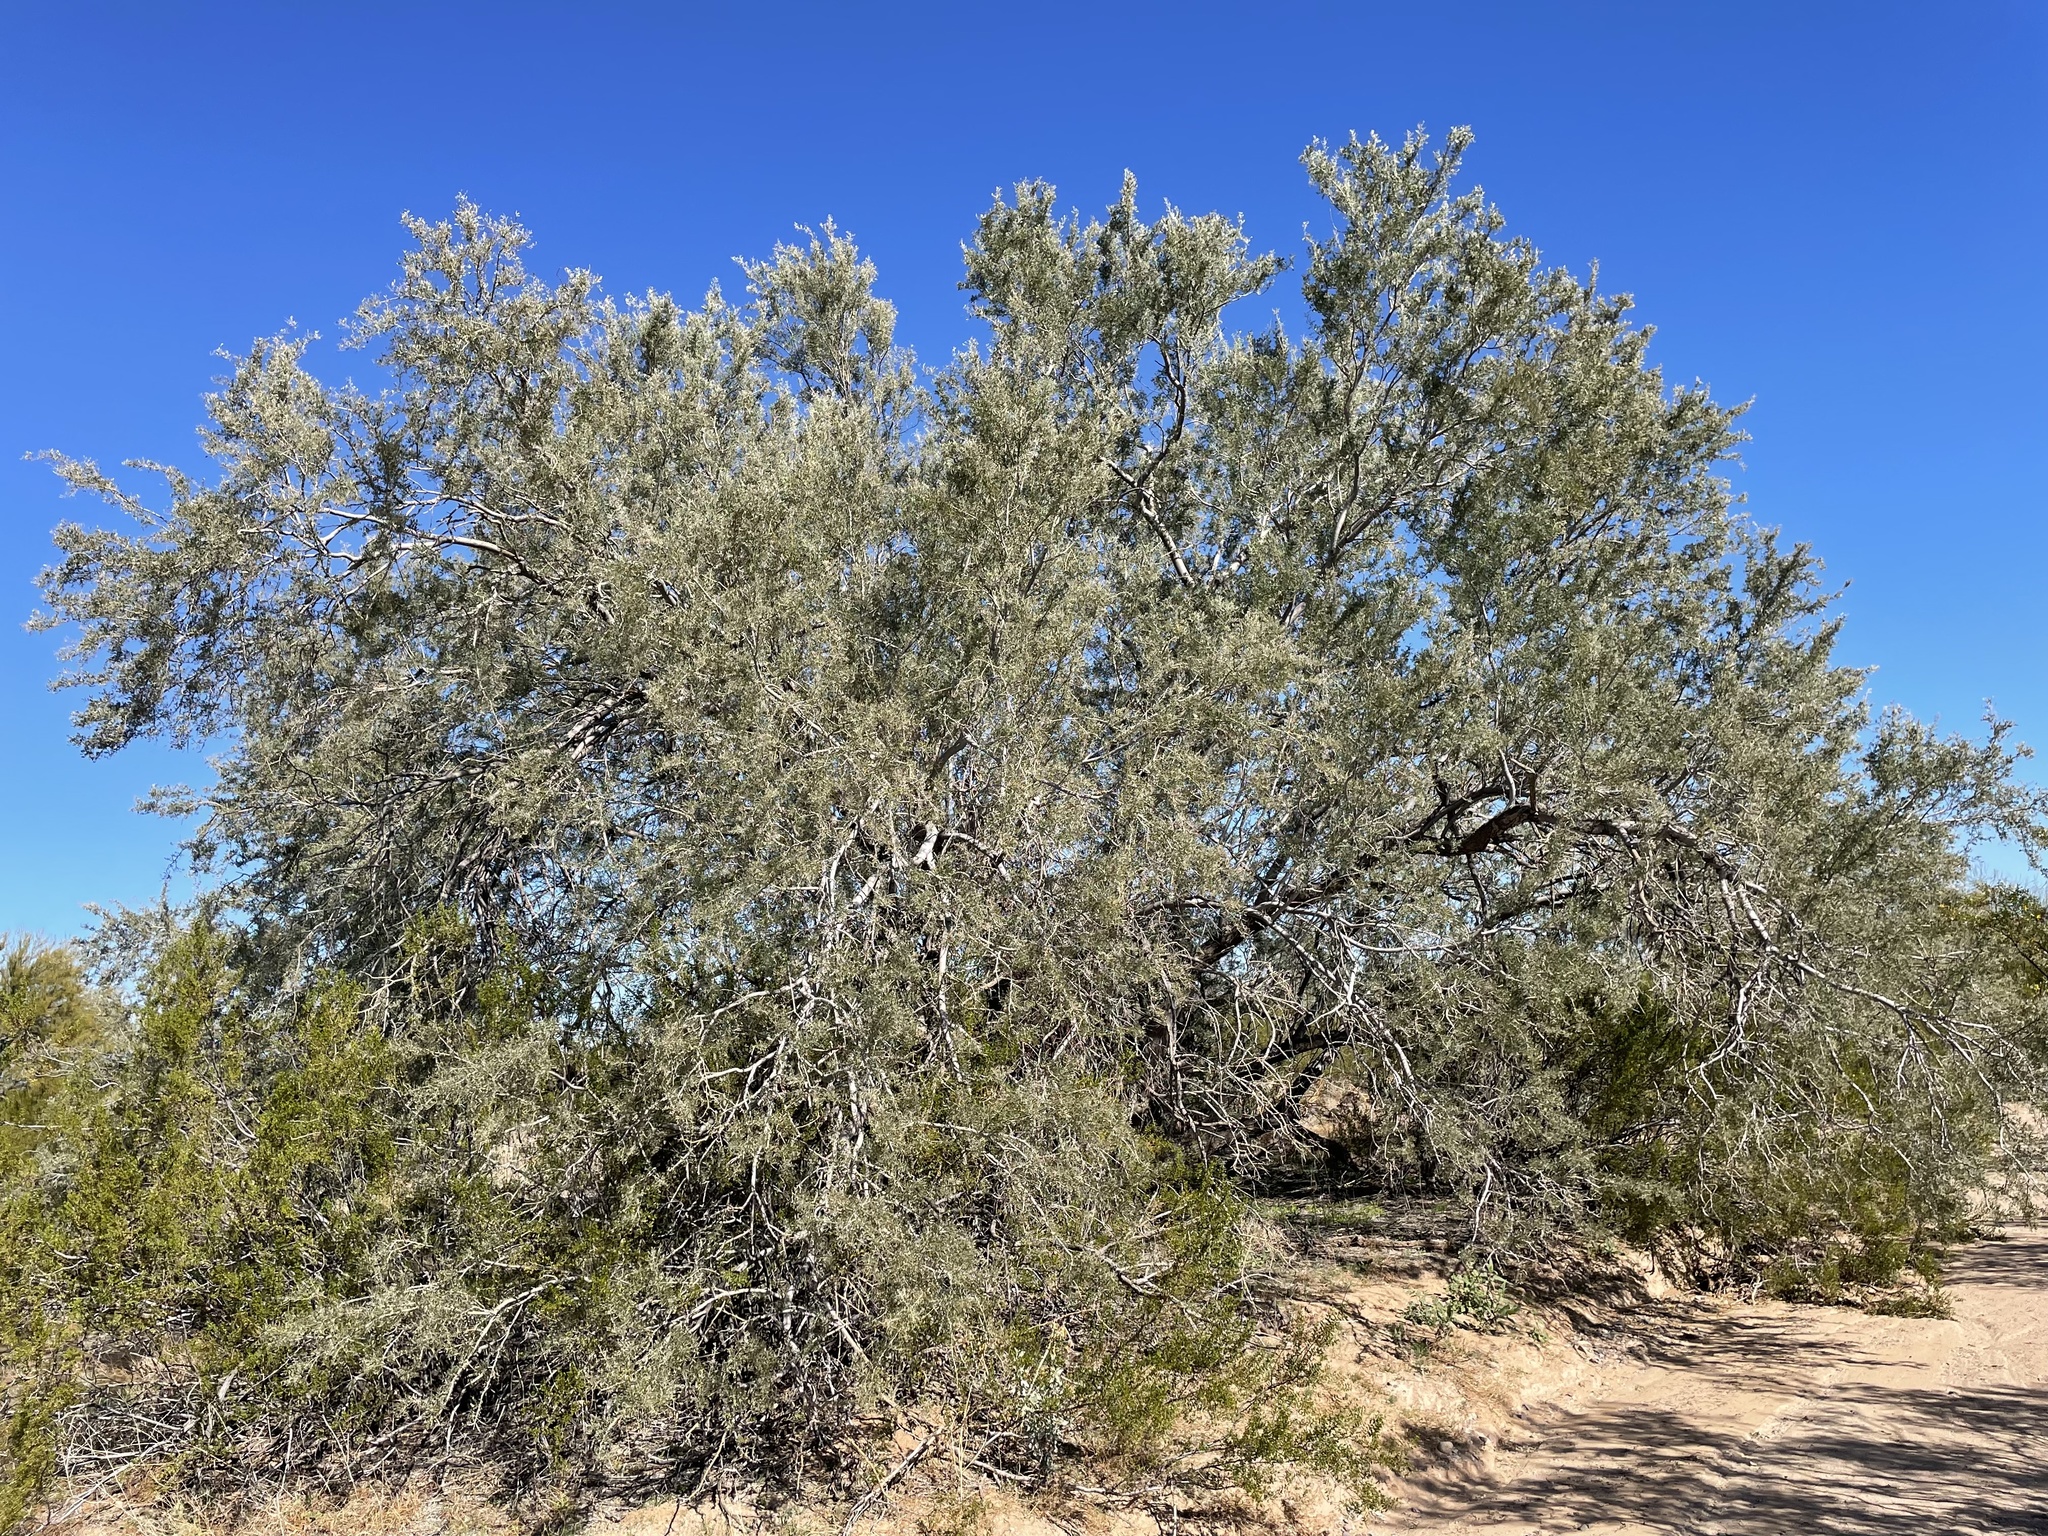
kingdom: Plantae
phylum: Tracheophyta
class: Magnoliopsida
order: Fabales
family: Fabaceae
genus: Olneya
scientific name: Olneya tesota
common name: Desert ironwood
